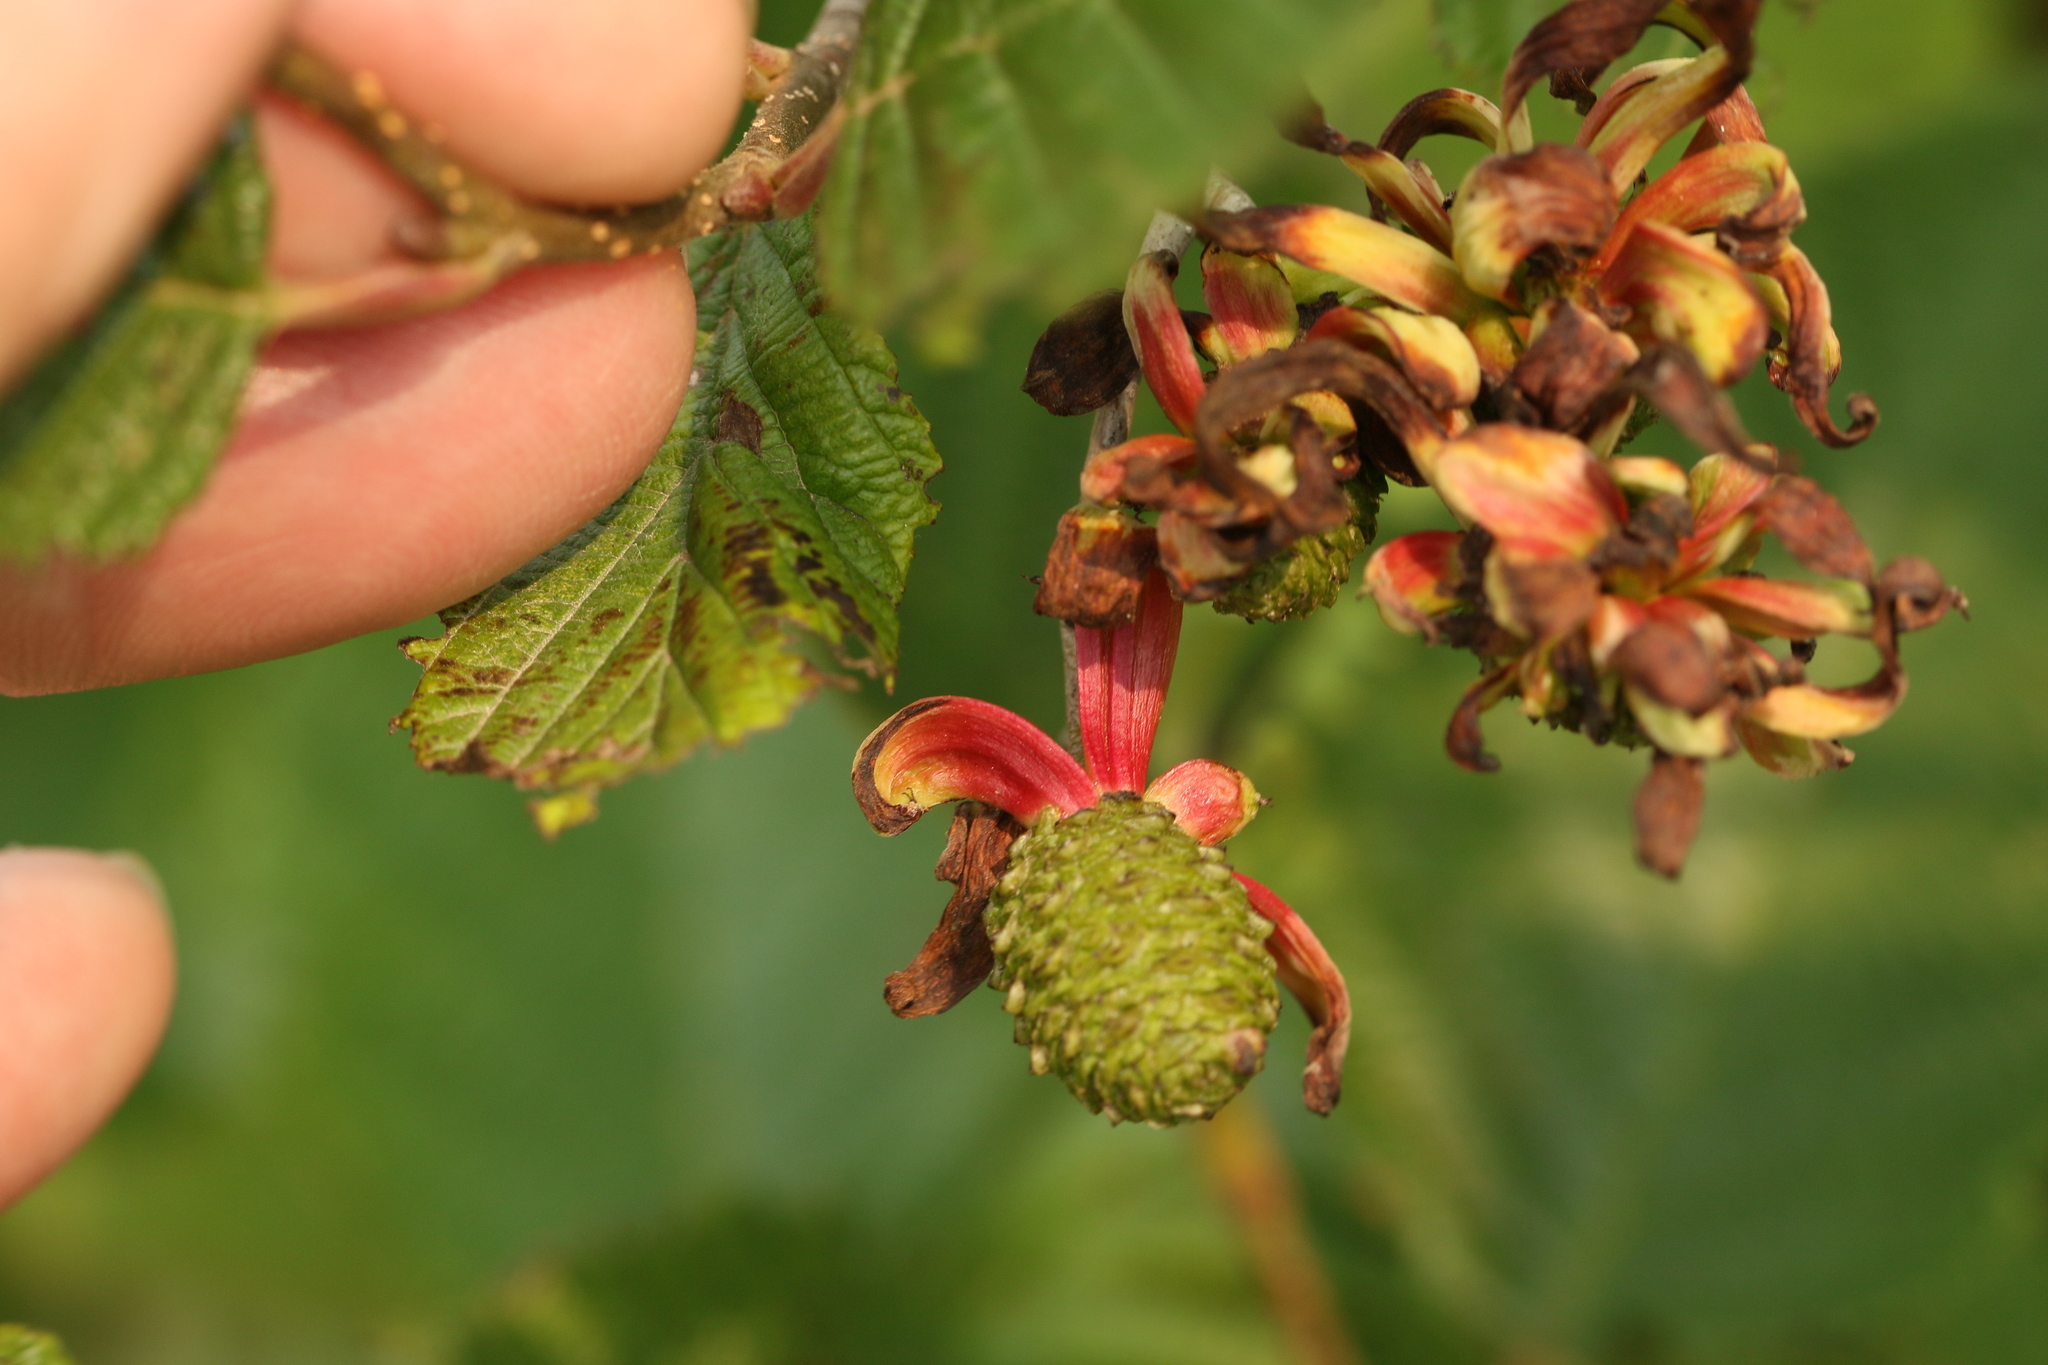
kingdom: Fungi
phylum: Ascomycota
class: Taphrinomycetes
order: Taphrinales
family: Taphrinaceae
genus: Taphrina
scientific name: Taphrina robinsoniana
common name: Eastern american alder tongue gall fungus
